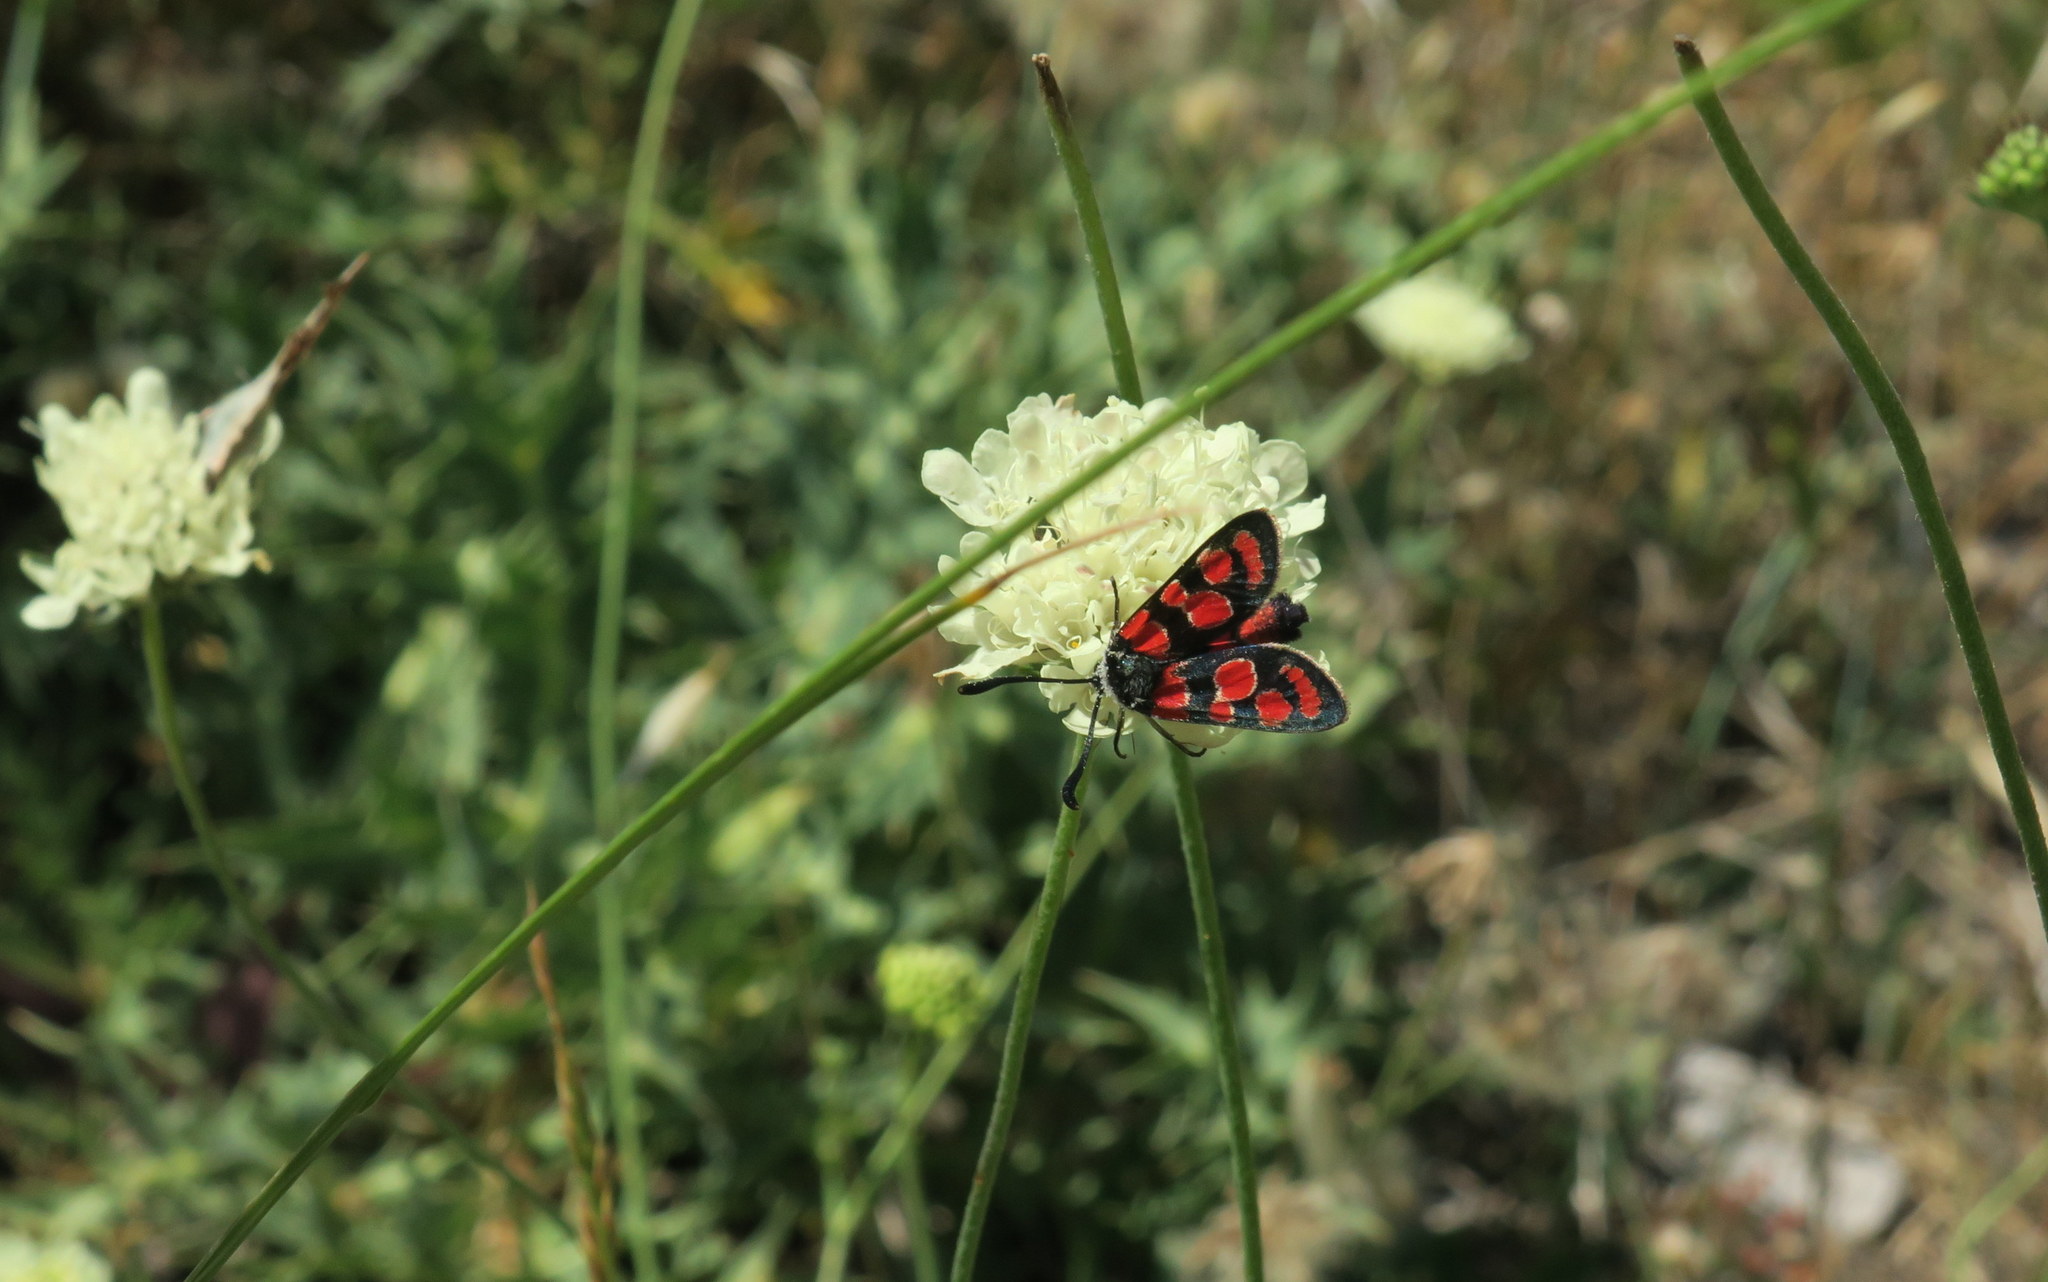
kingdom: Animalia
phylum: Arthropoda
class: Insecta
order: Lepidoptera
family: Zygaenidae
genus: Zygaena
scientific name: Zygaena carniolica
